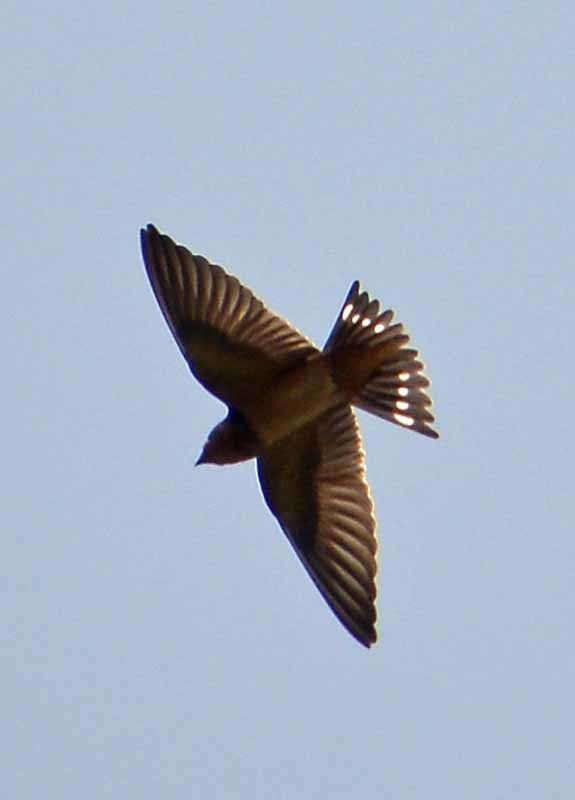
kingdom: Animalia
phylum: Chordata
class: Aves
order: Passeriformes
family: Hirundinidae
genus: Hirundo
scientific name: Hirundo rustica
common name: Barn swallow
